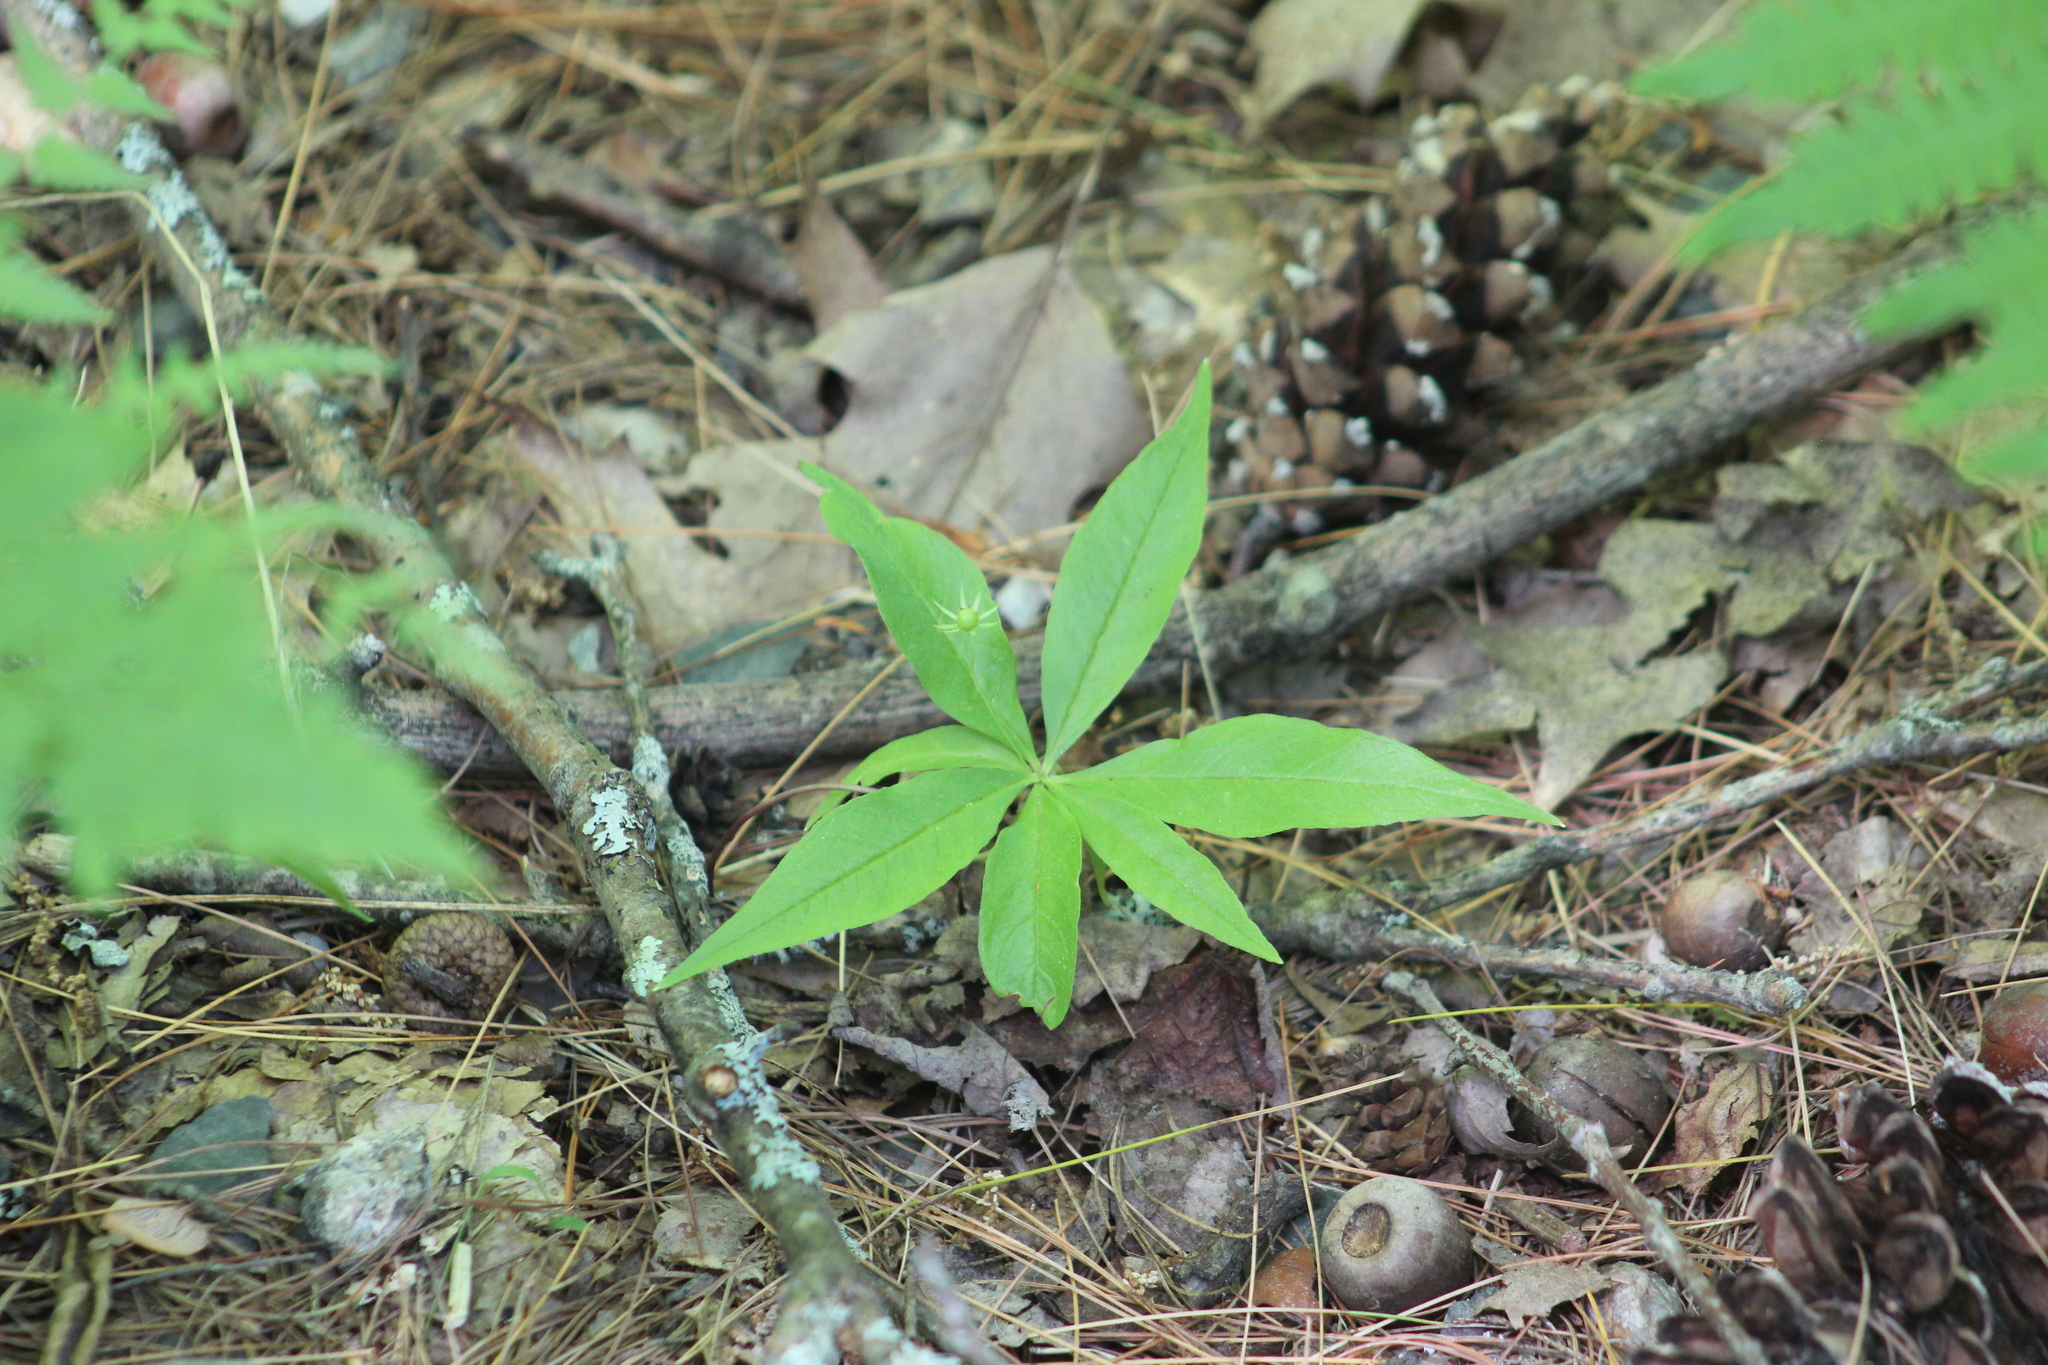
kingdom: Plantae
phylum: Tracheophyta
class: Magnoliopsida
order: Ericales
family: Primulaceae
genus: Lysimachia
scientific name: Lysimachia borealis
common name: American starflower
